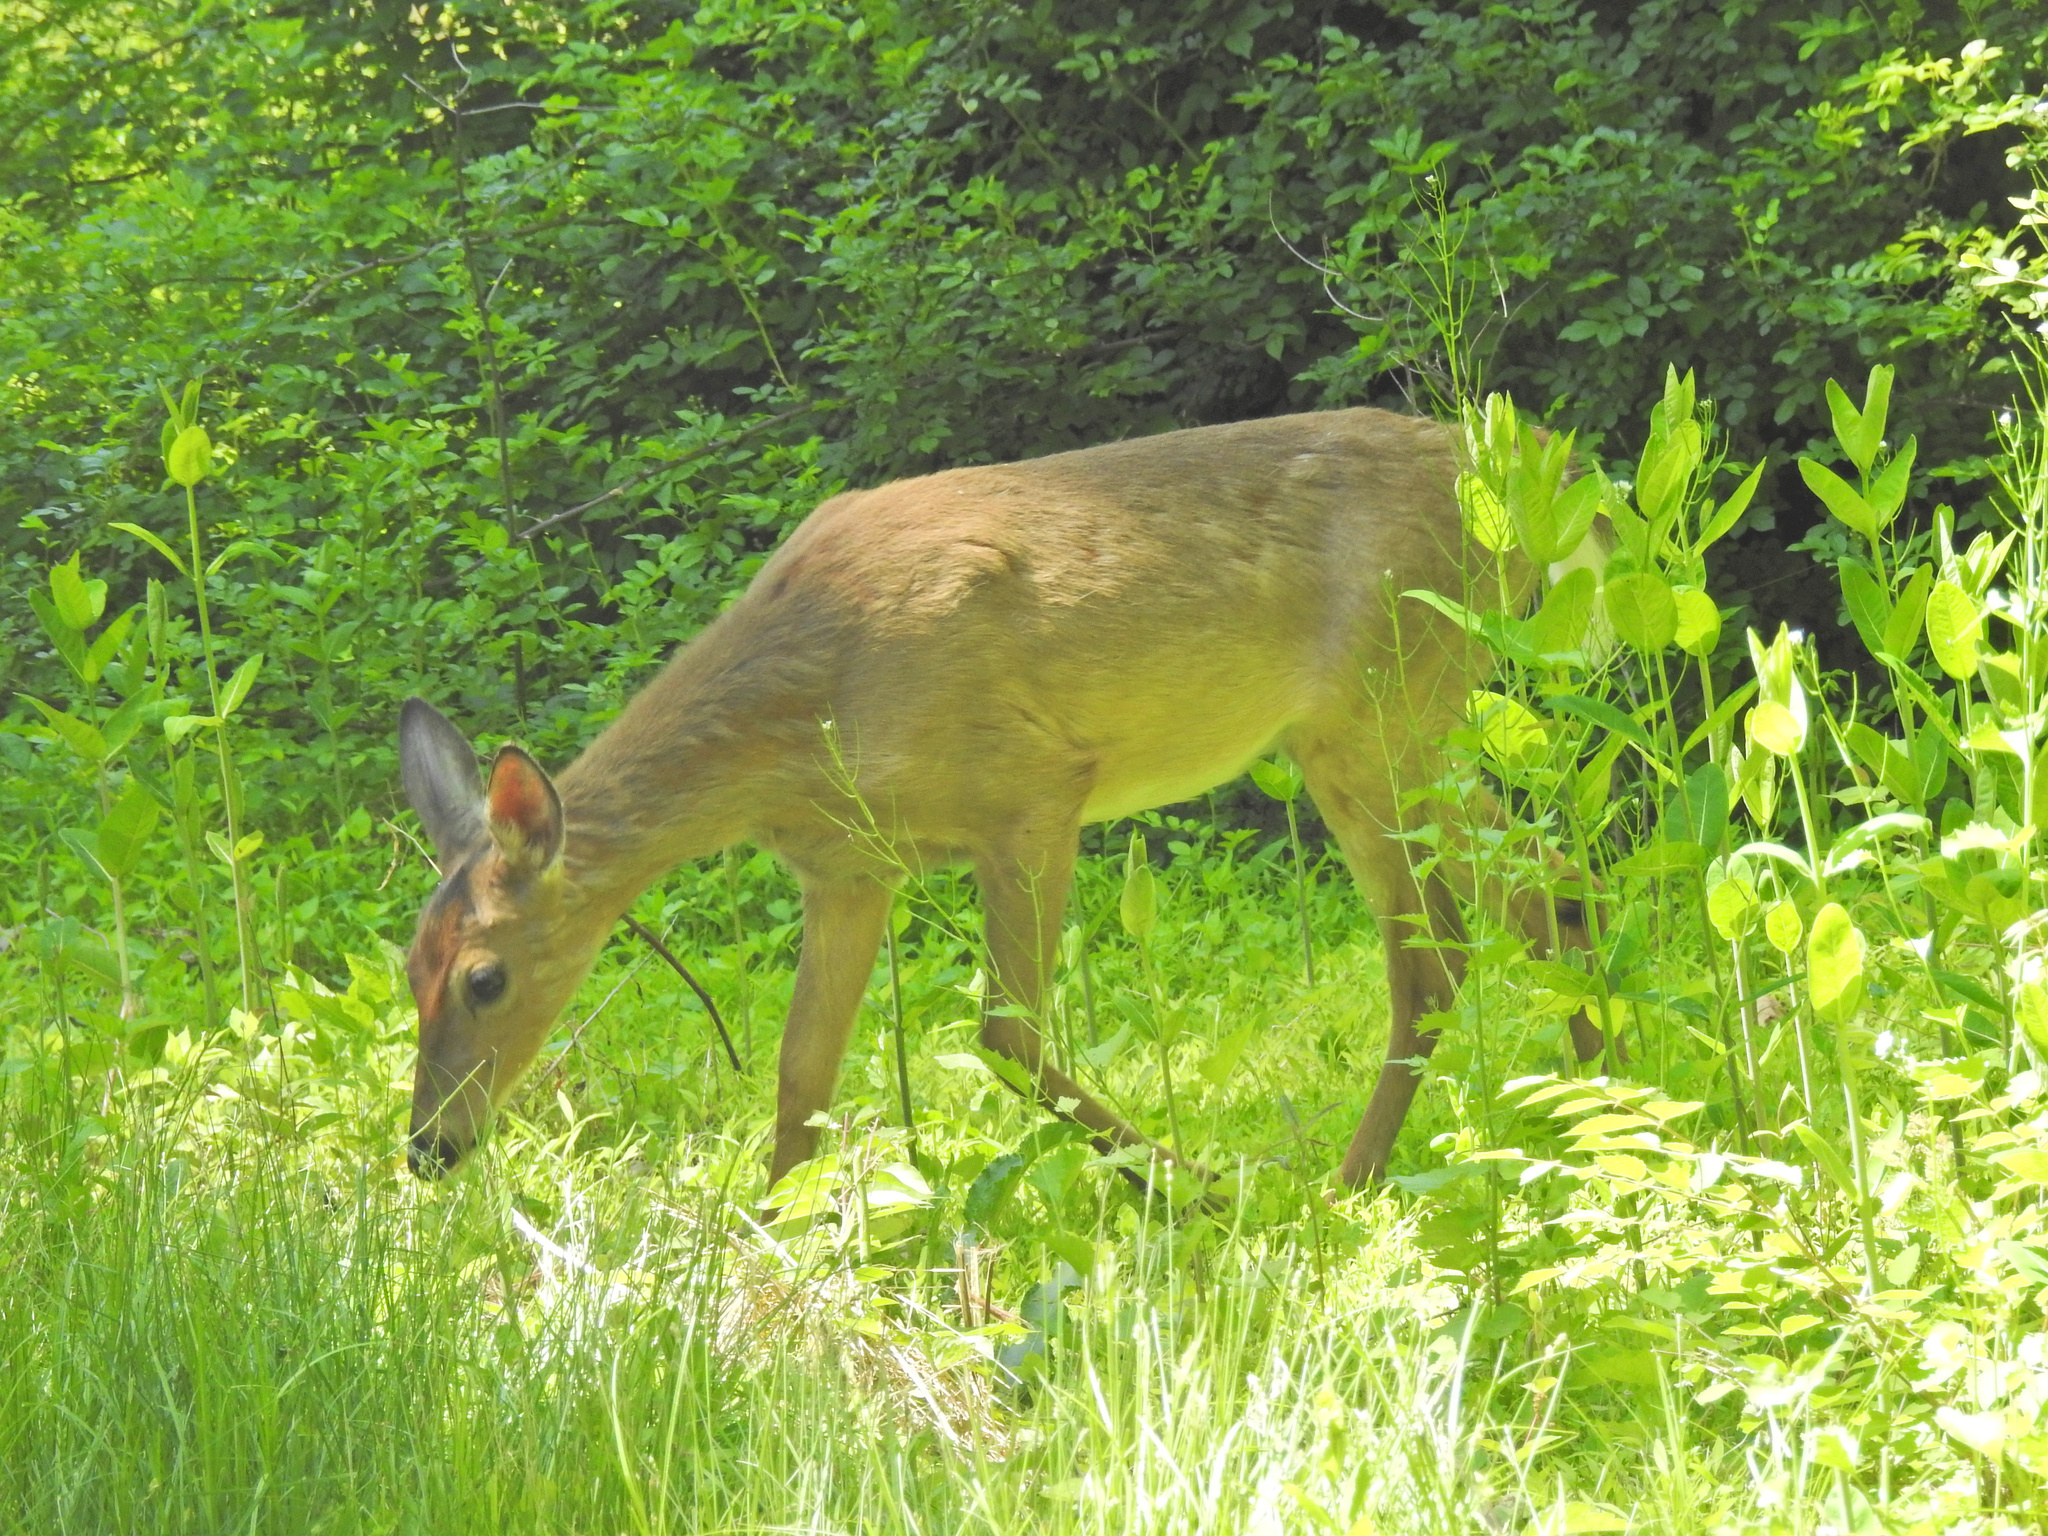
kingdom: Animalia
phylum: Chordata
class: Mammalia
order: Artiodactyla
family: Cervidae
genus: Odocoileus
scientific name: Odocoileus virginianus
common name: White-tailed deer
